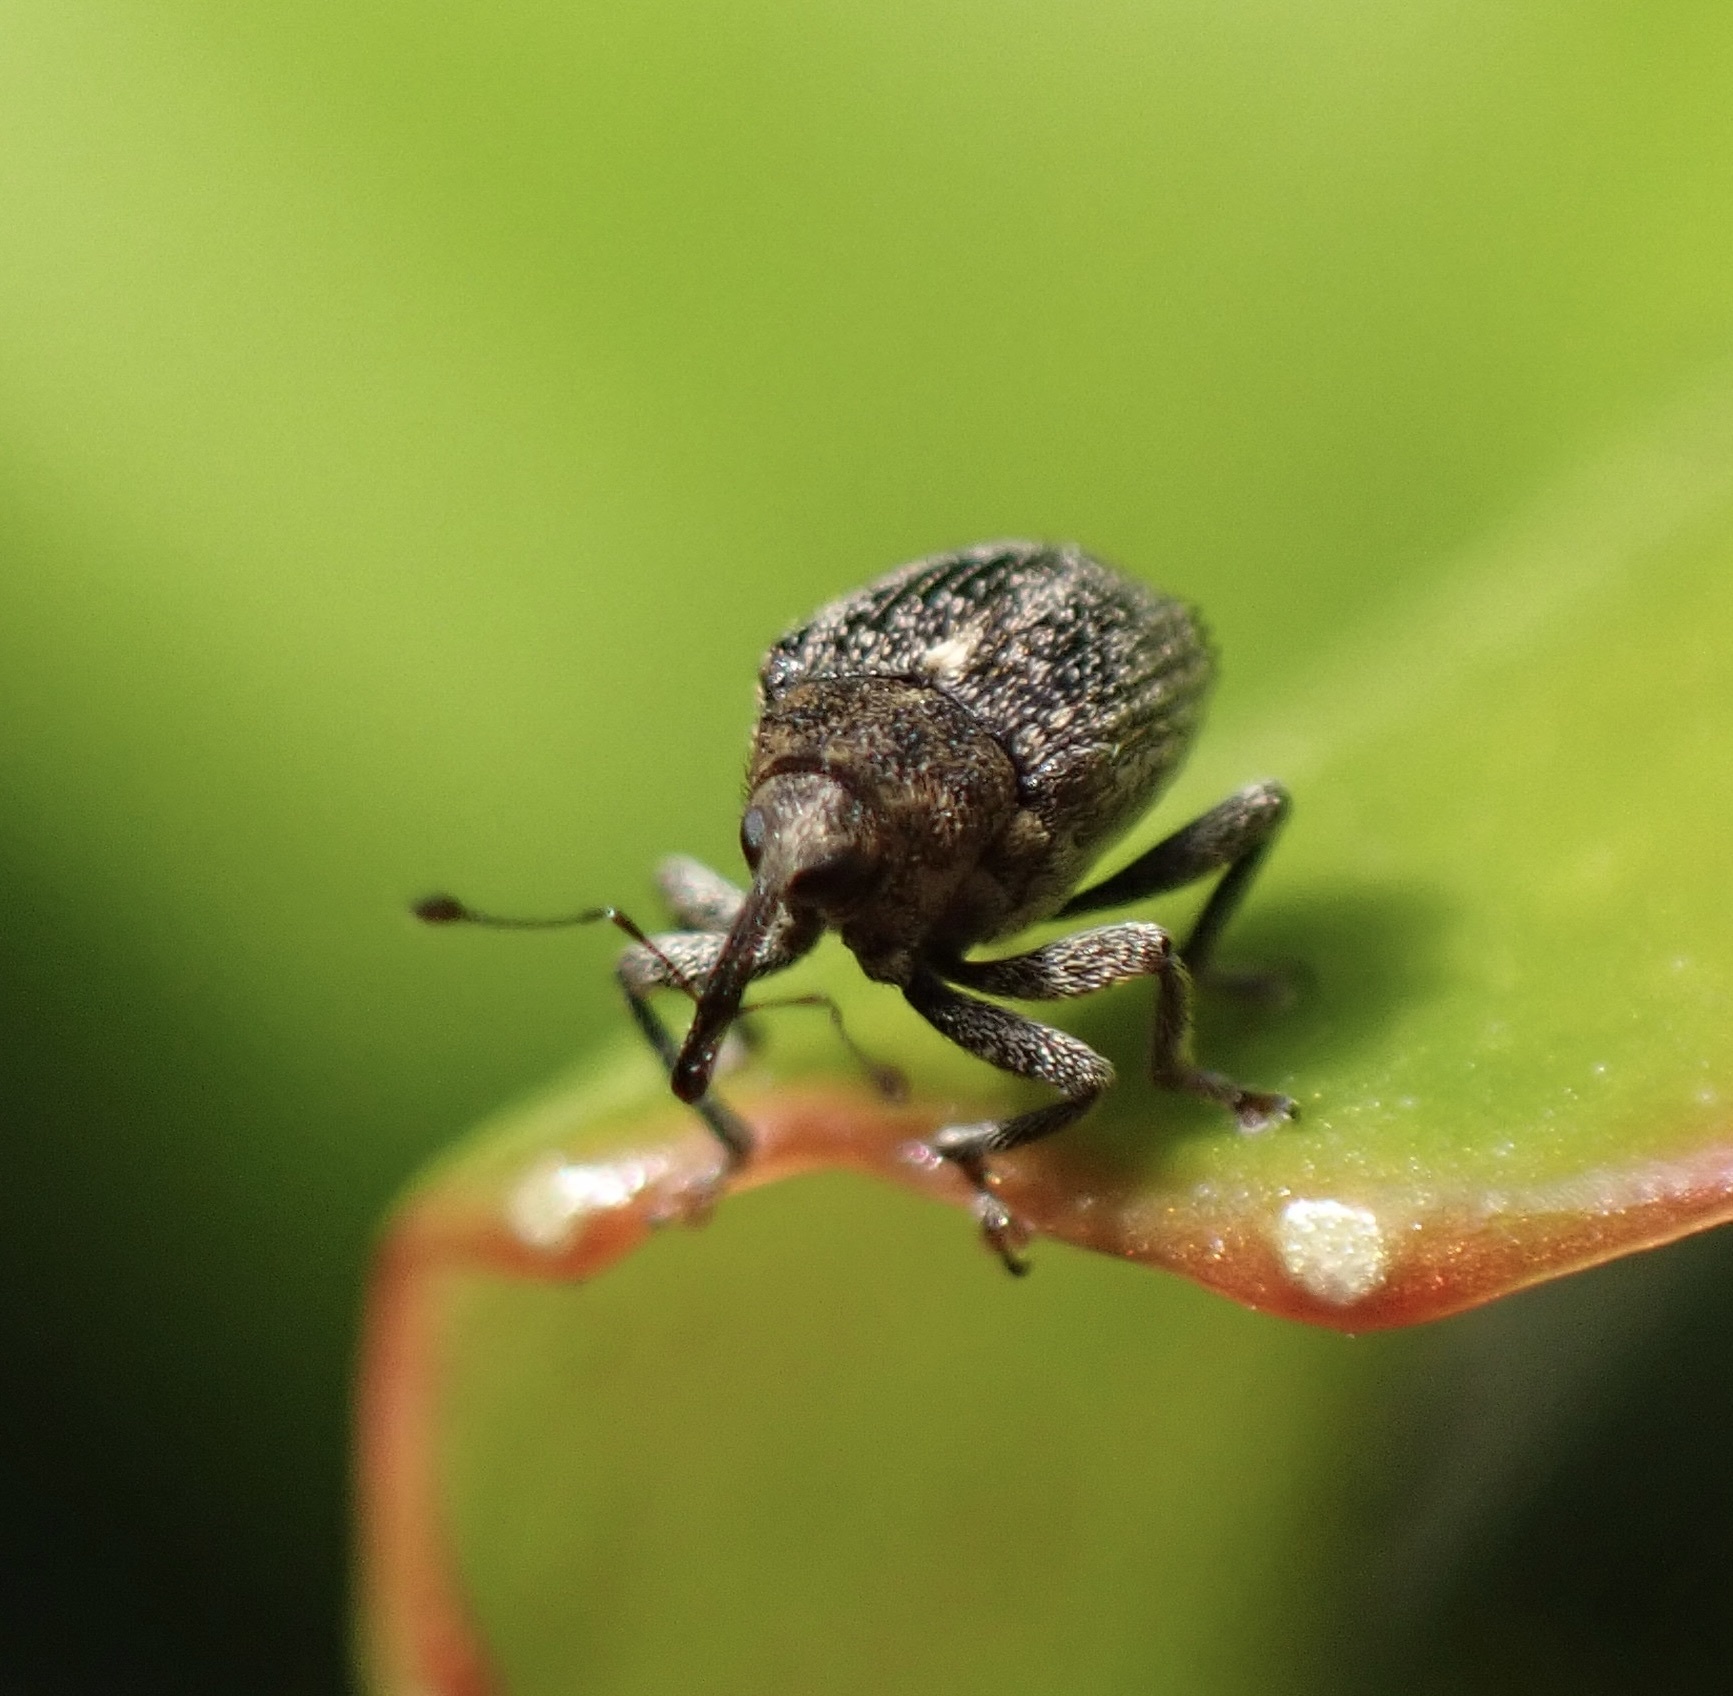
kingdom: Animalia
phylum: Arthropoda
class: Insecta
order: Coleoptera
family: Curculionidae
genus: Ceutorhynchus
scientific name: Ceutorhynchus pallidactylus
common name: Cabbage stem weavil
